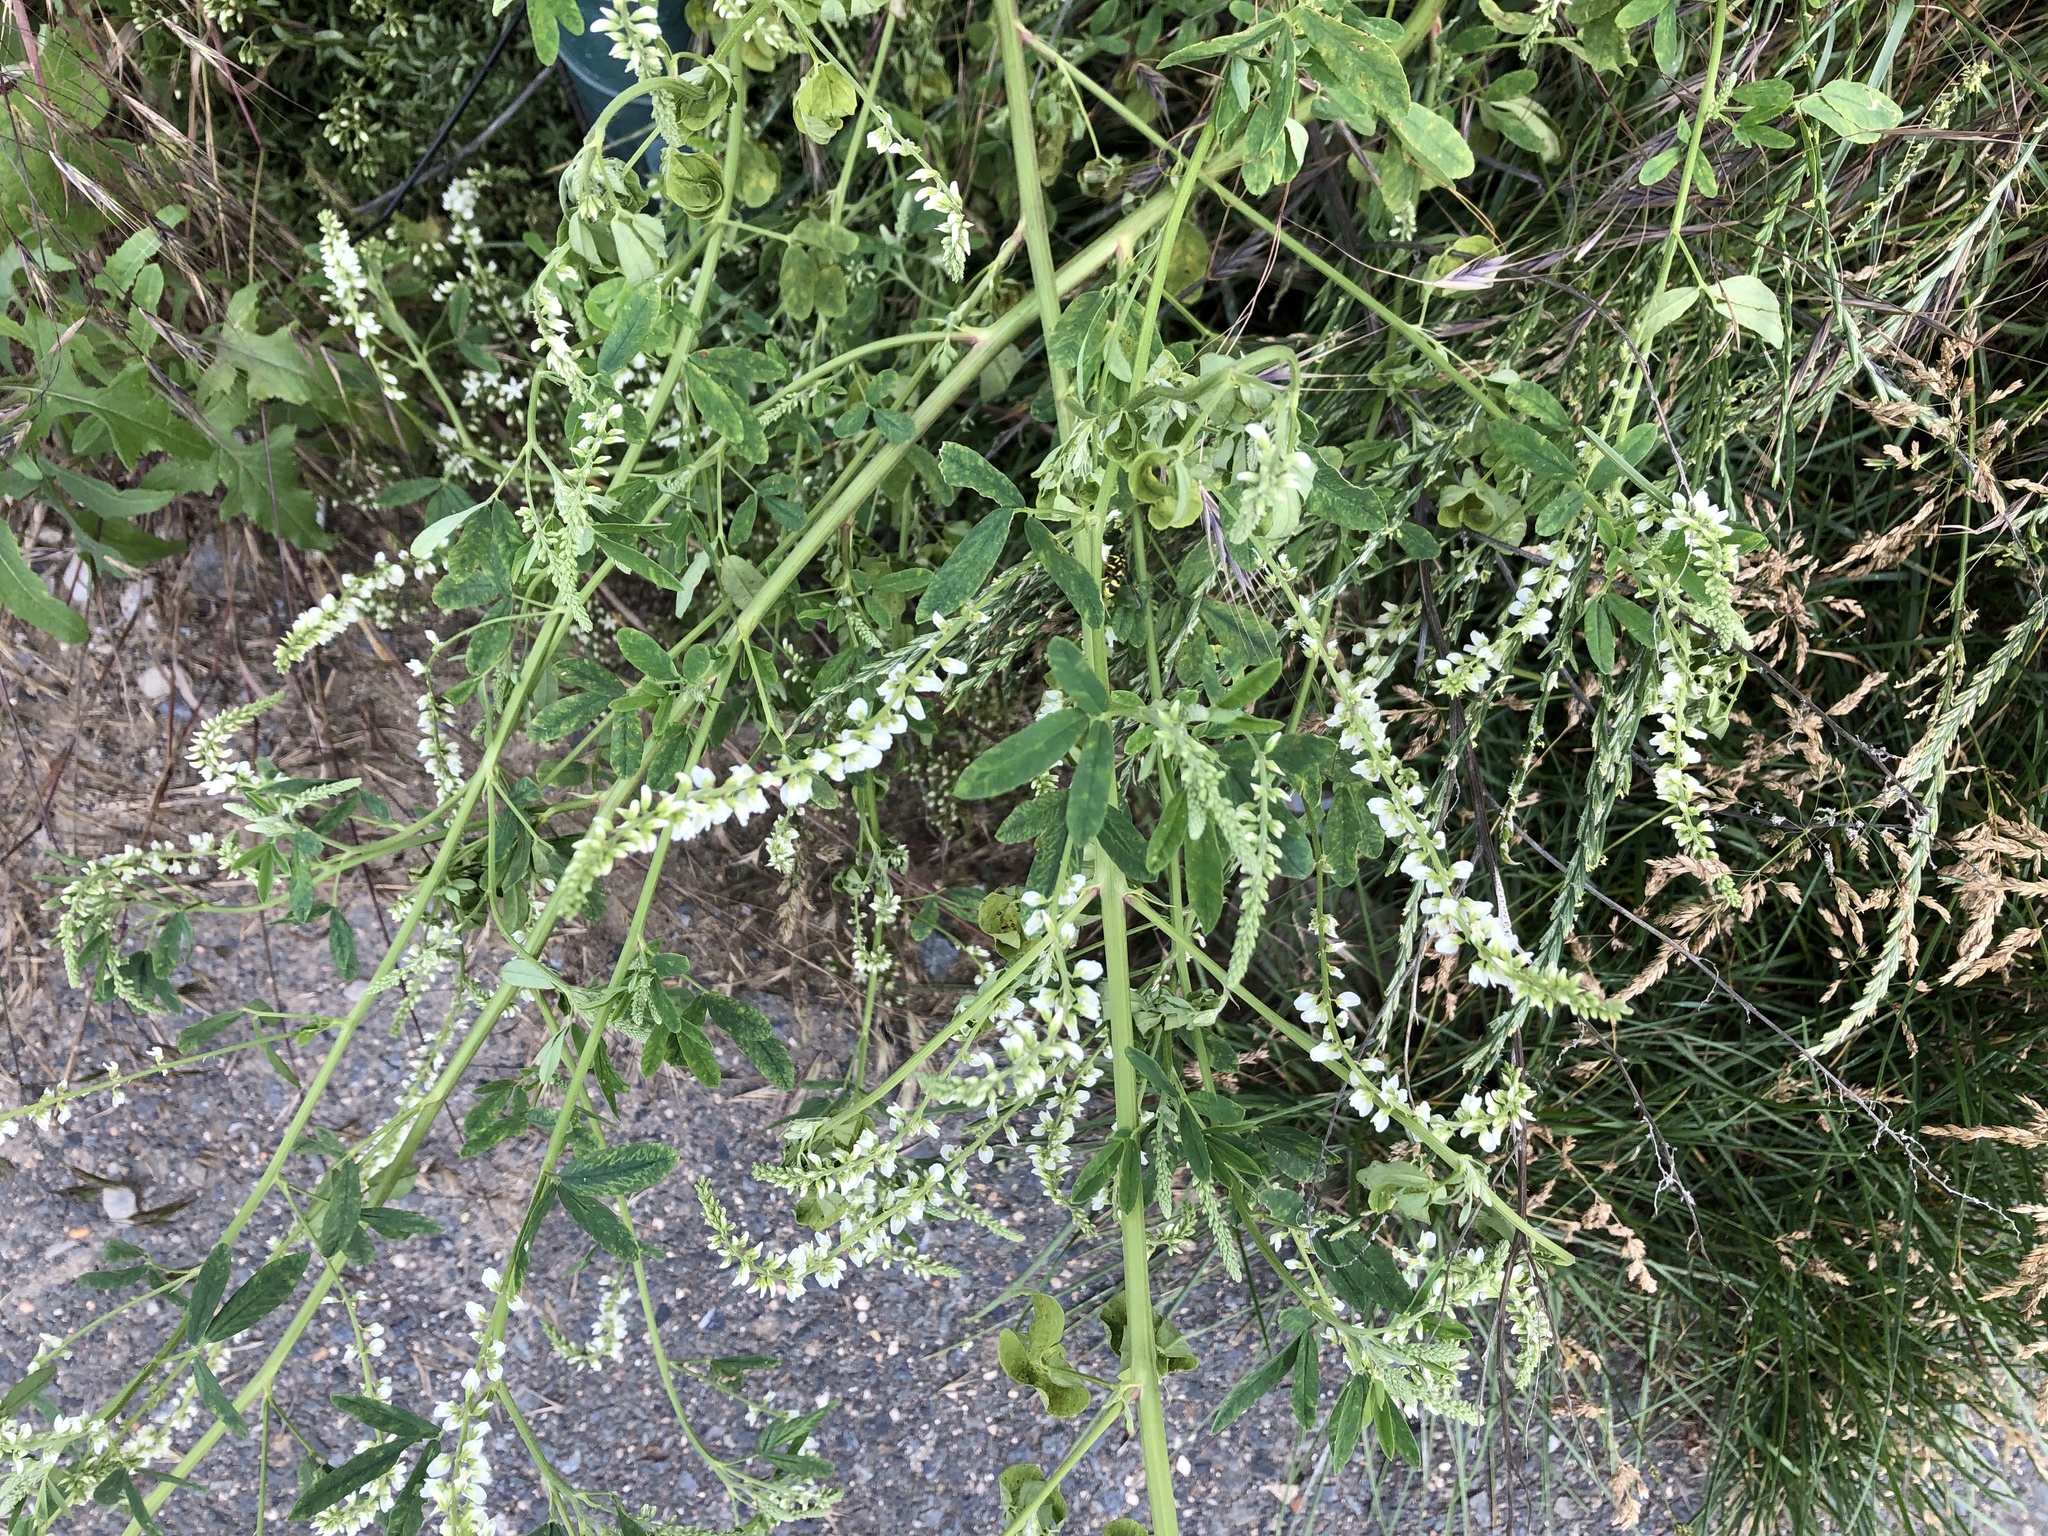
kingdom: Plantae
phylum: Tracheophyta
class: Magnoliopsida
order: Fabales
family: Fabaceae
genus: Melilotus
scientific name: Melilotus albus
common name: White melilot
